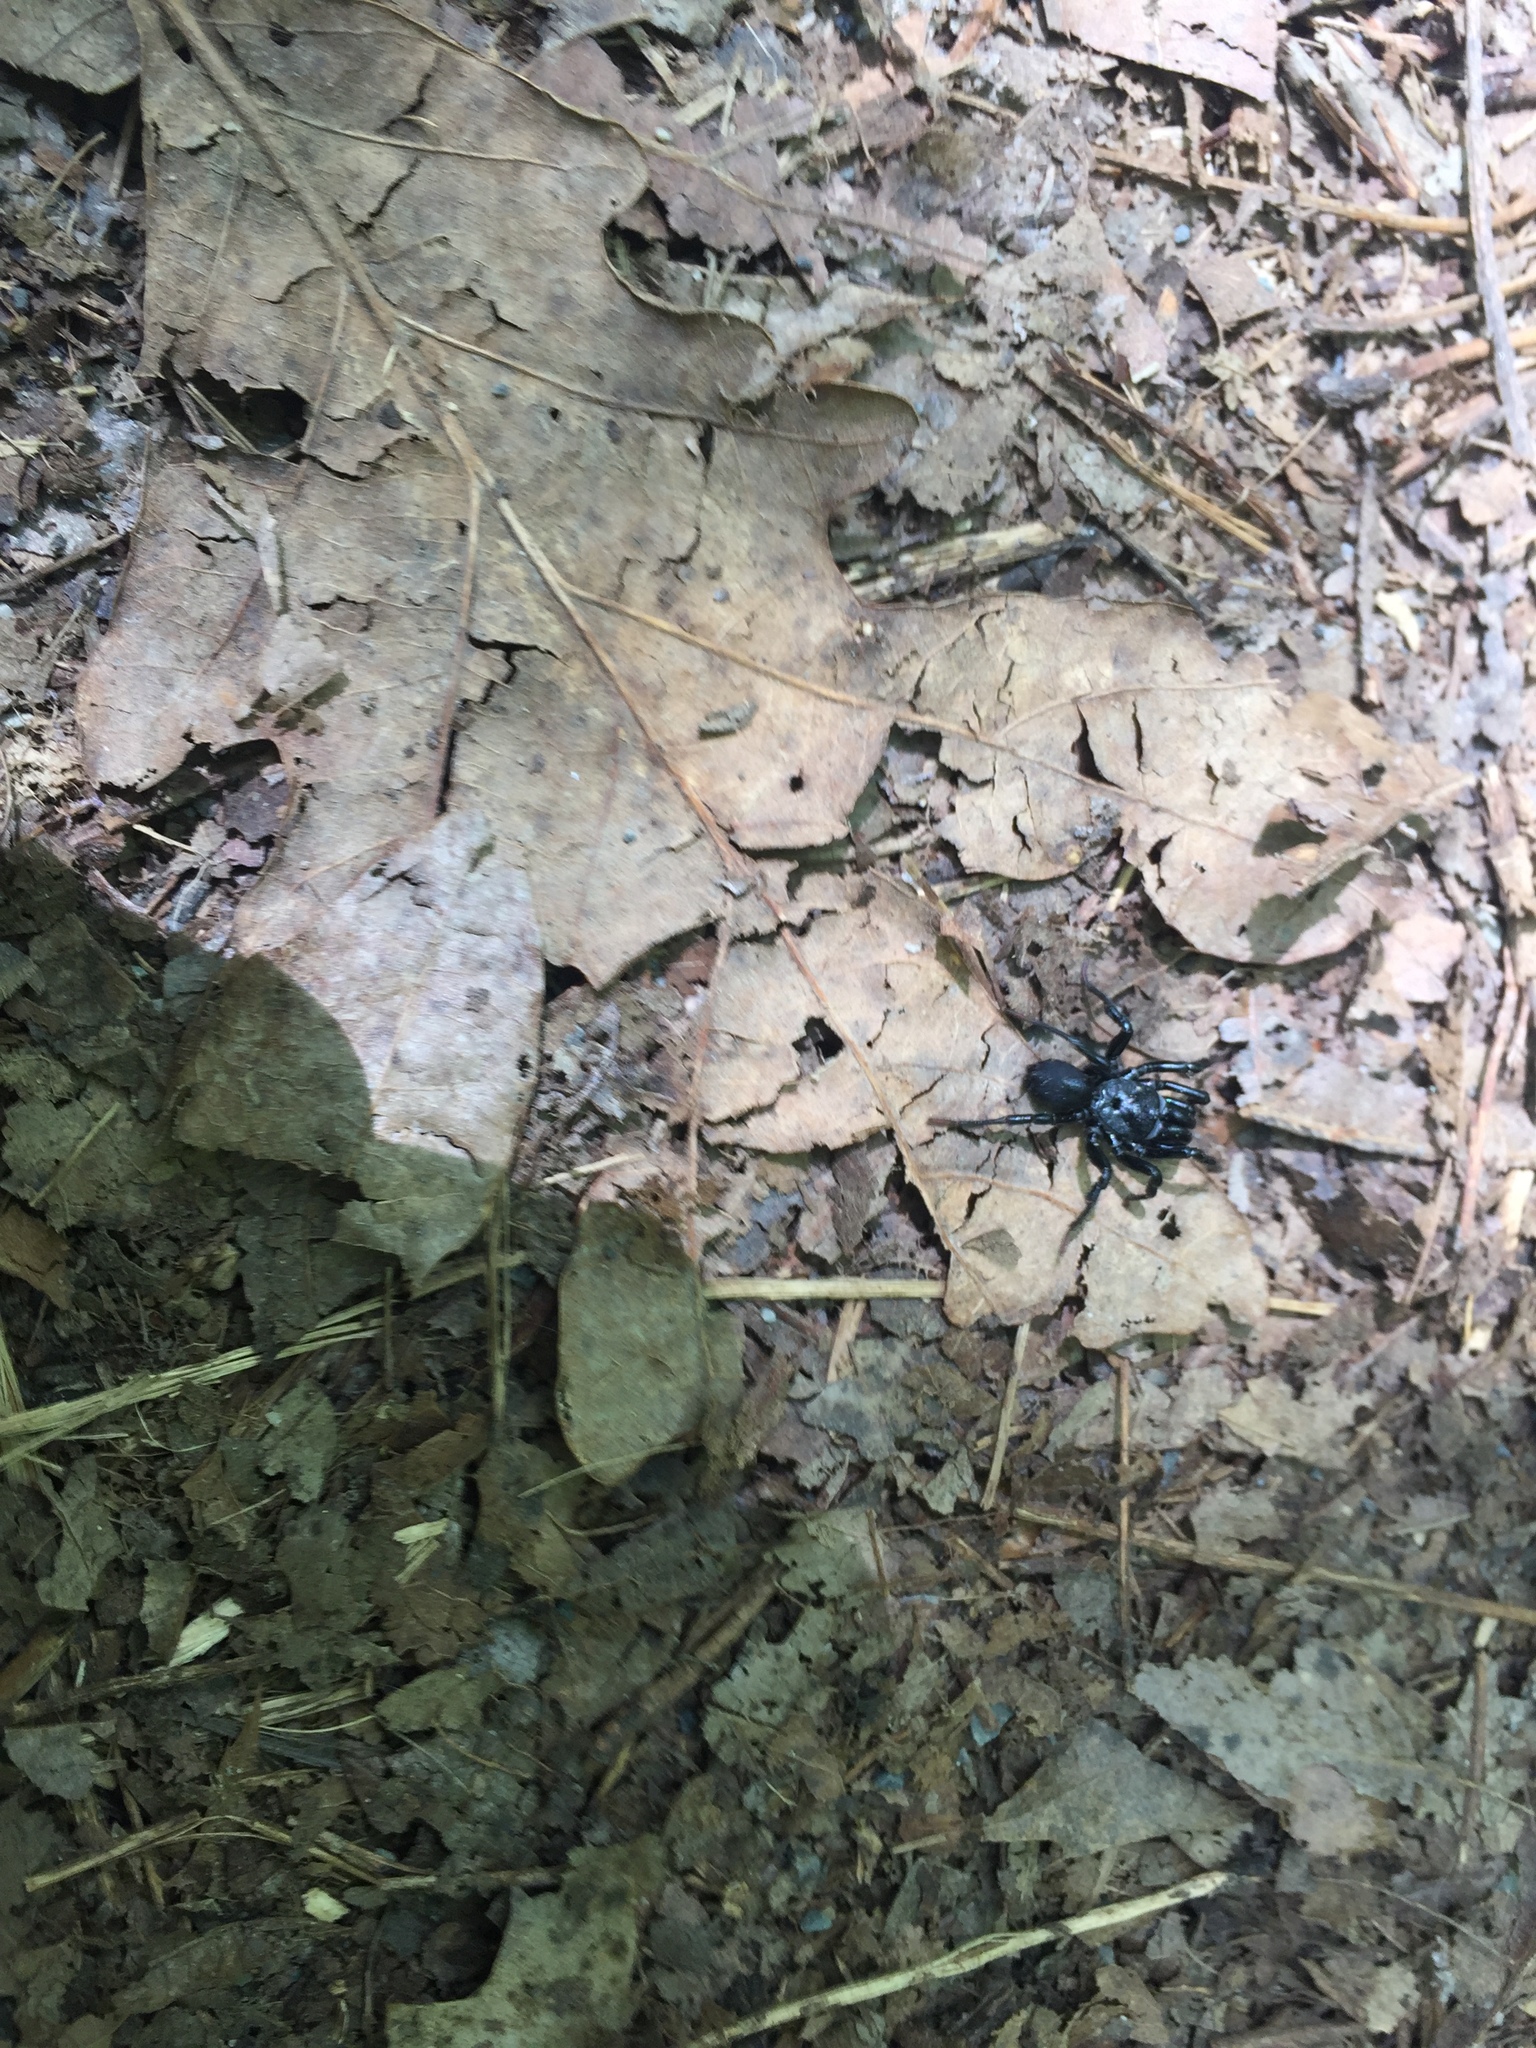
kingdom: Animalia
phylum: Arthropoda
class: Arachnida
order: Araneae
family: Atypidae
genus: Sphodros
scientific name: Sphodros niger
